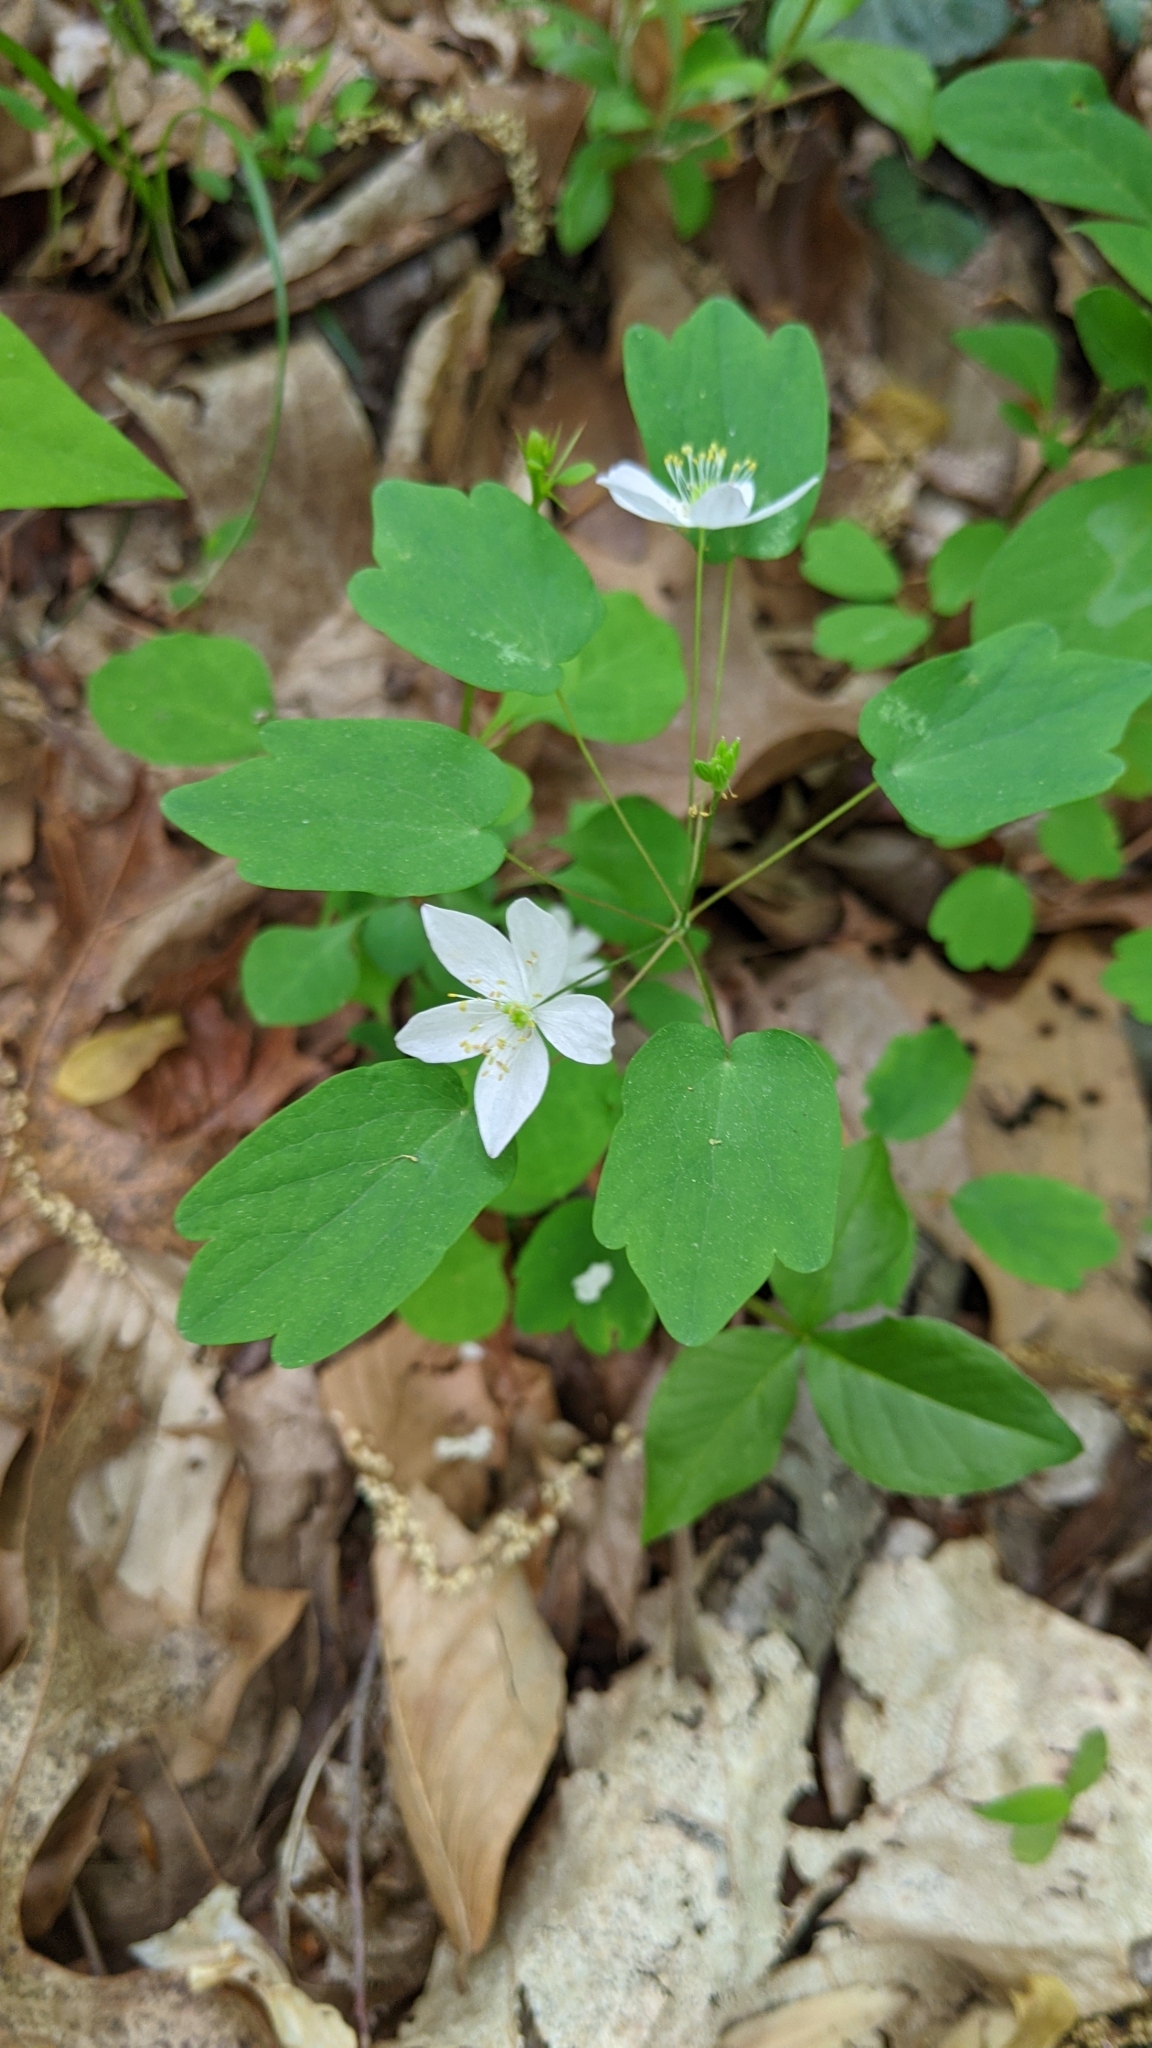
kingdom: Plantae
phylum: Tracheophyta
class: Magnoliopsida
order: Ranunculales
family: Ranunculaceae
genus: Thalictrum
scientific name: Thalictrum thalictroides
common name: Rue-anemone
